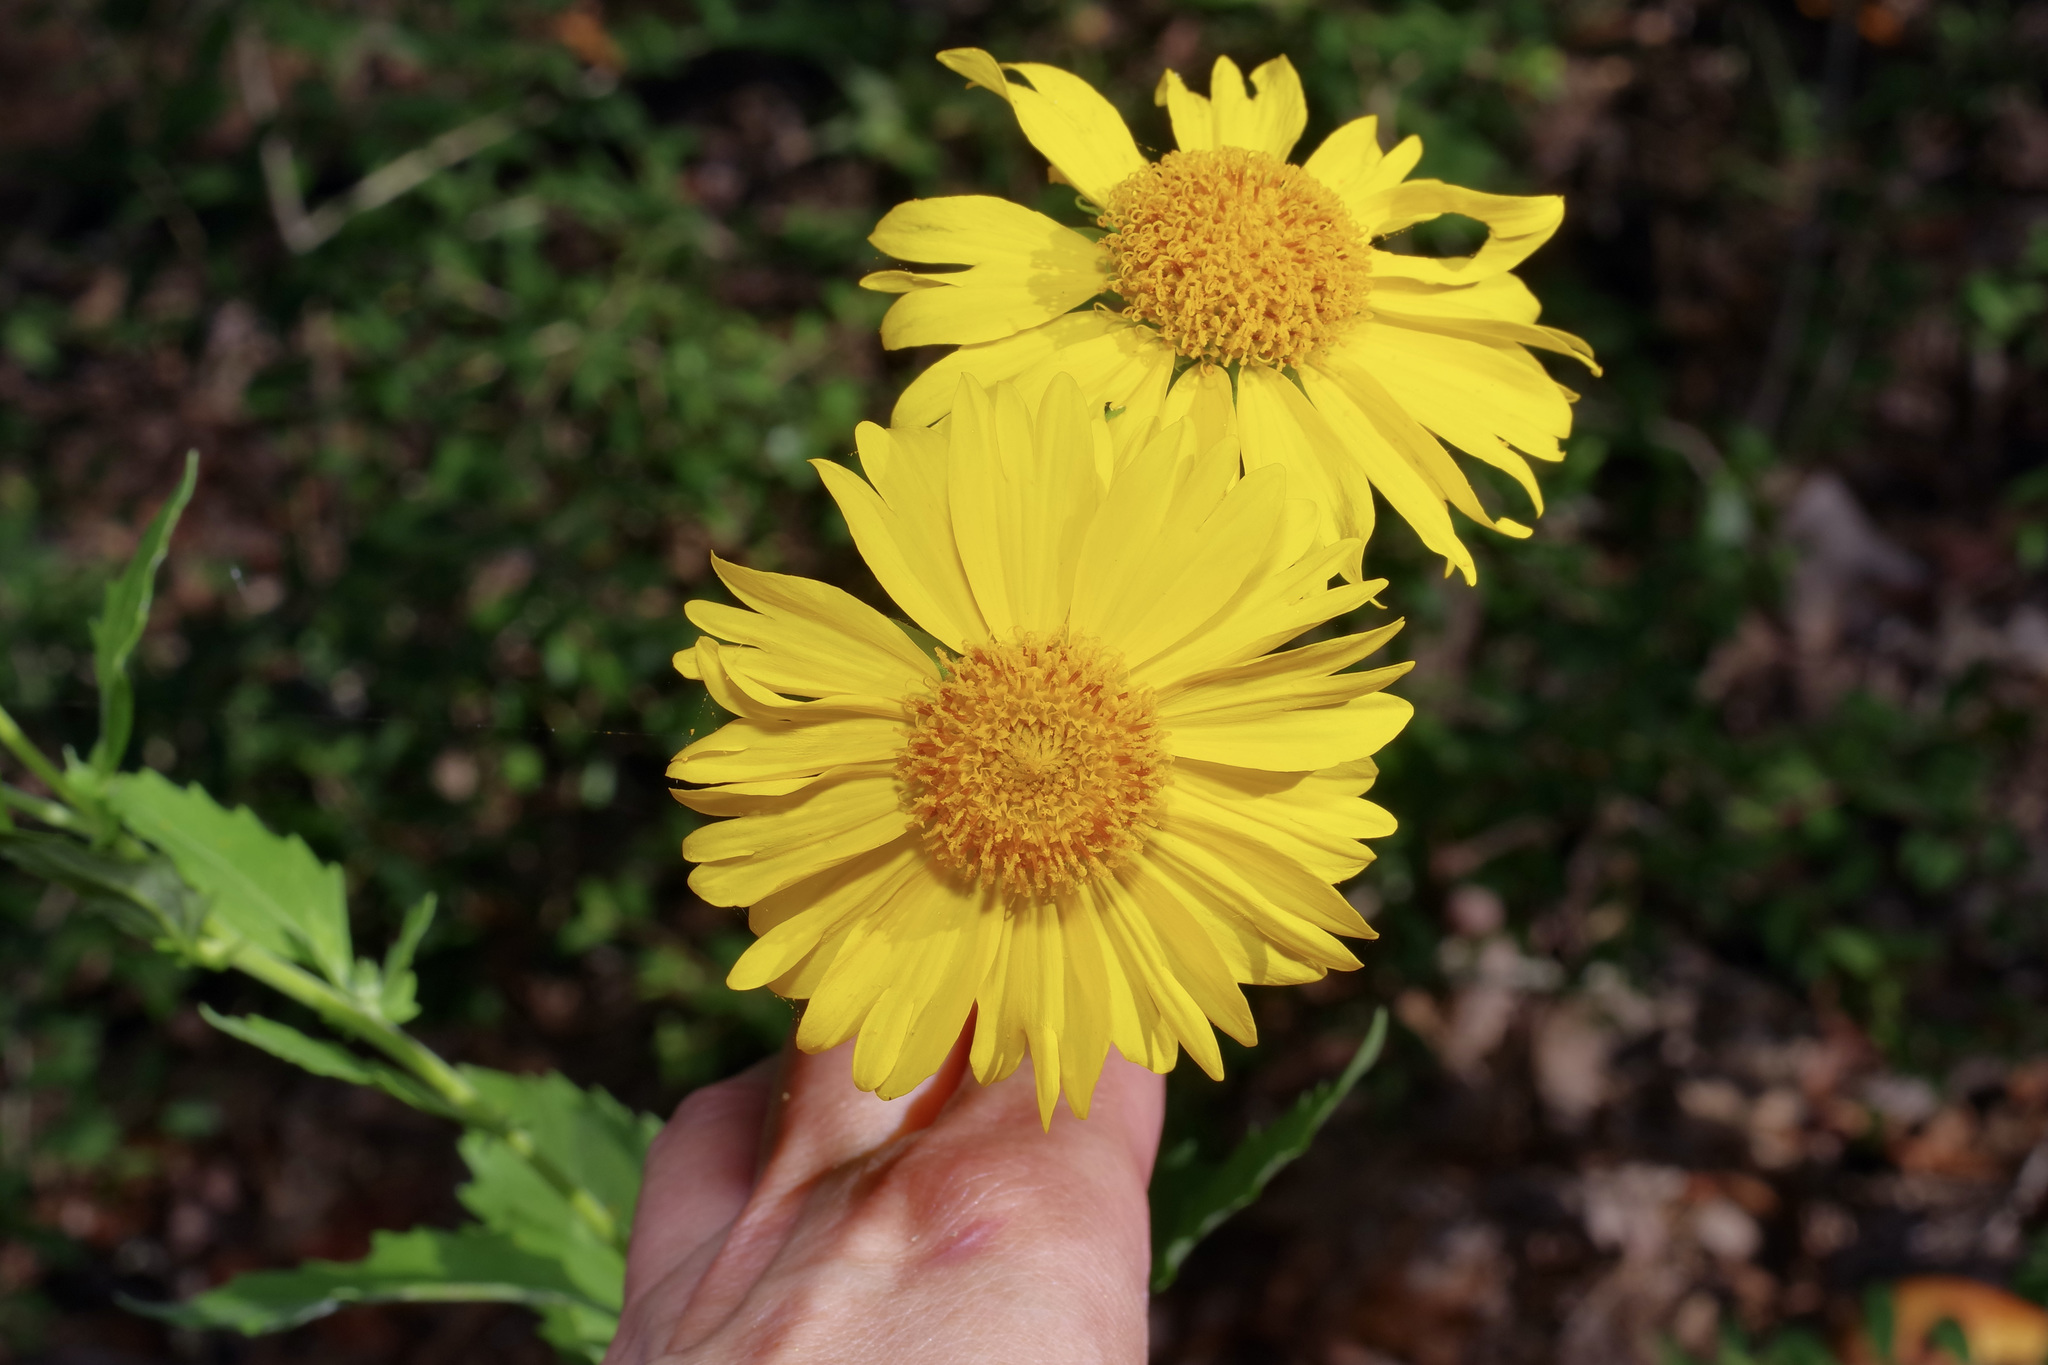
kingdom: Plantae
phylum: Tracheophyta
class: Magnoliopsida
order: Asterales
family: Asteraceae
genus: Verbesina
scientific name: Verbesina encelioides
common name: Golden crownbeard
